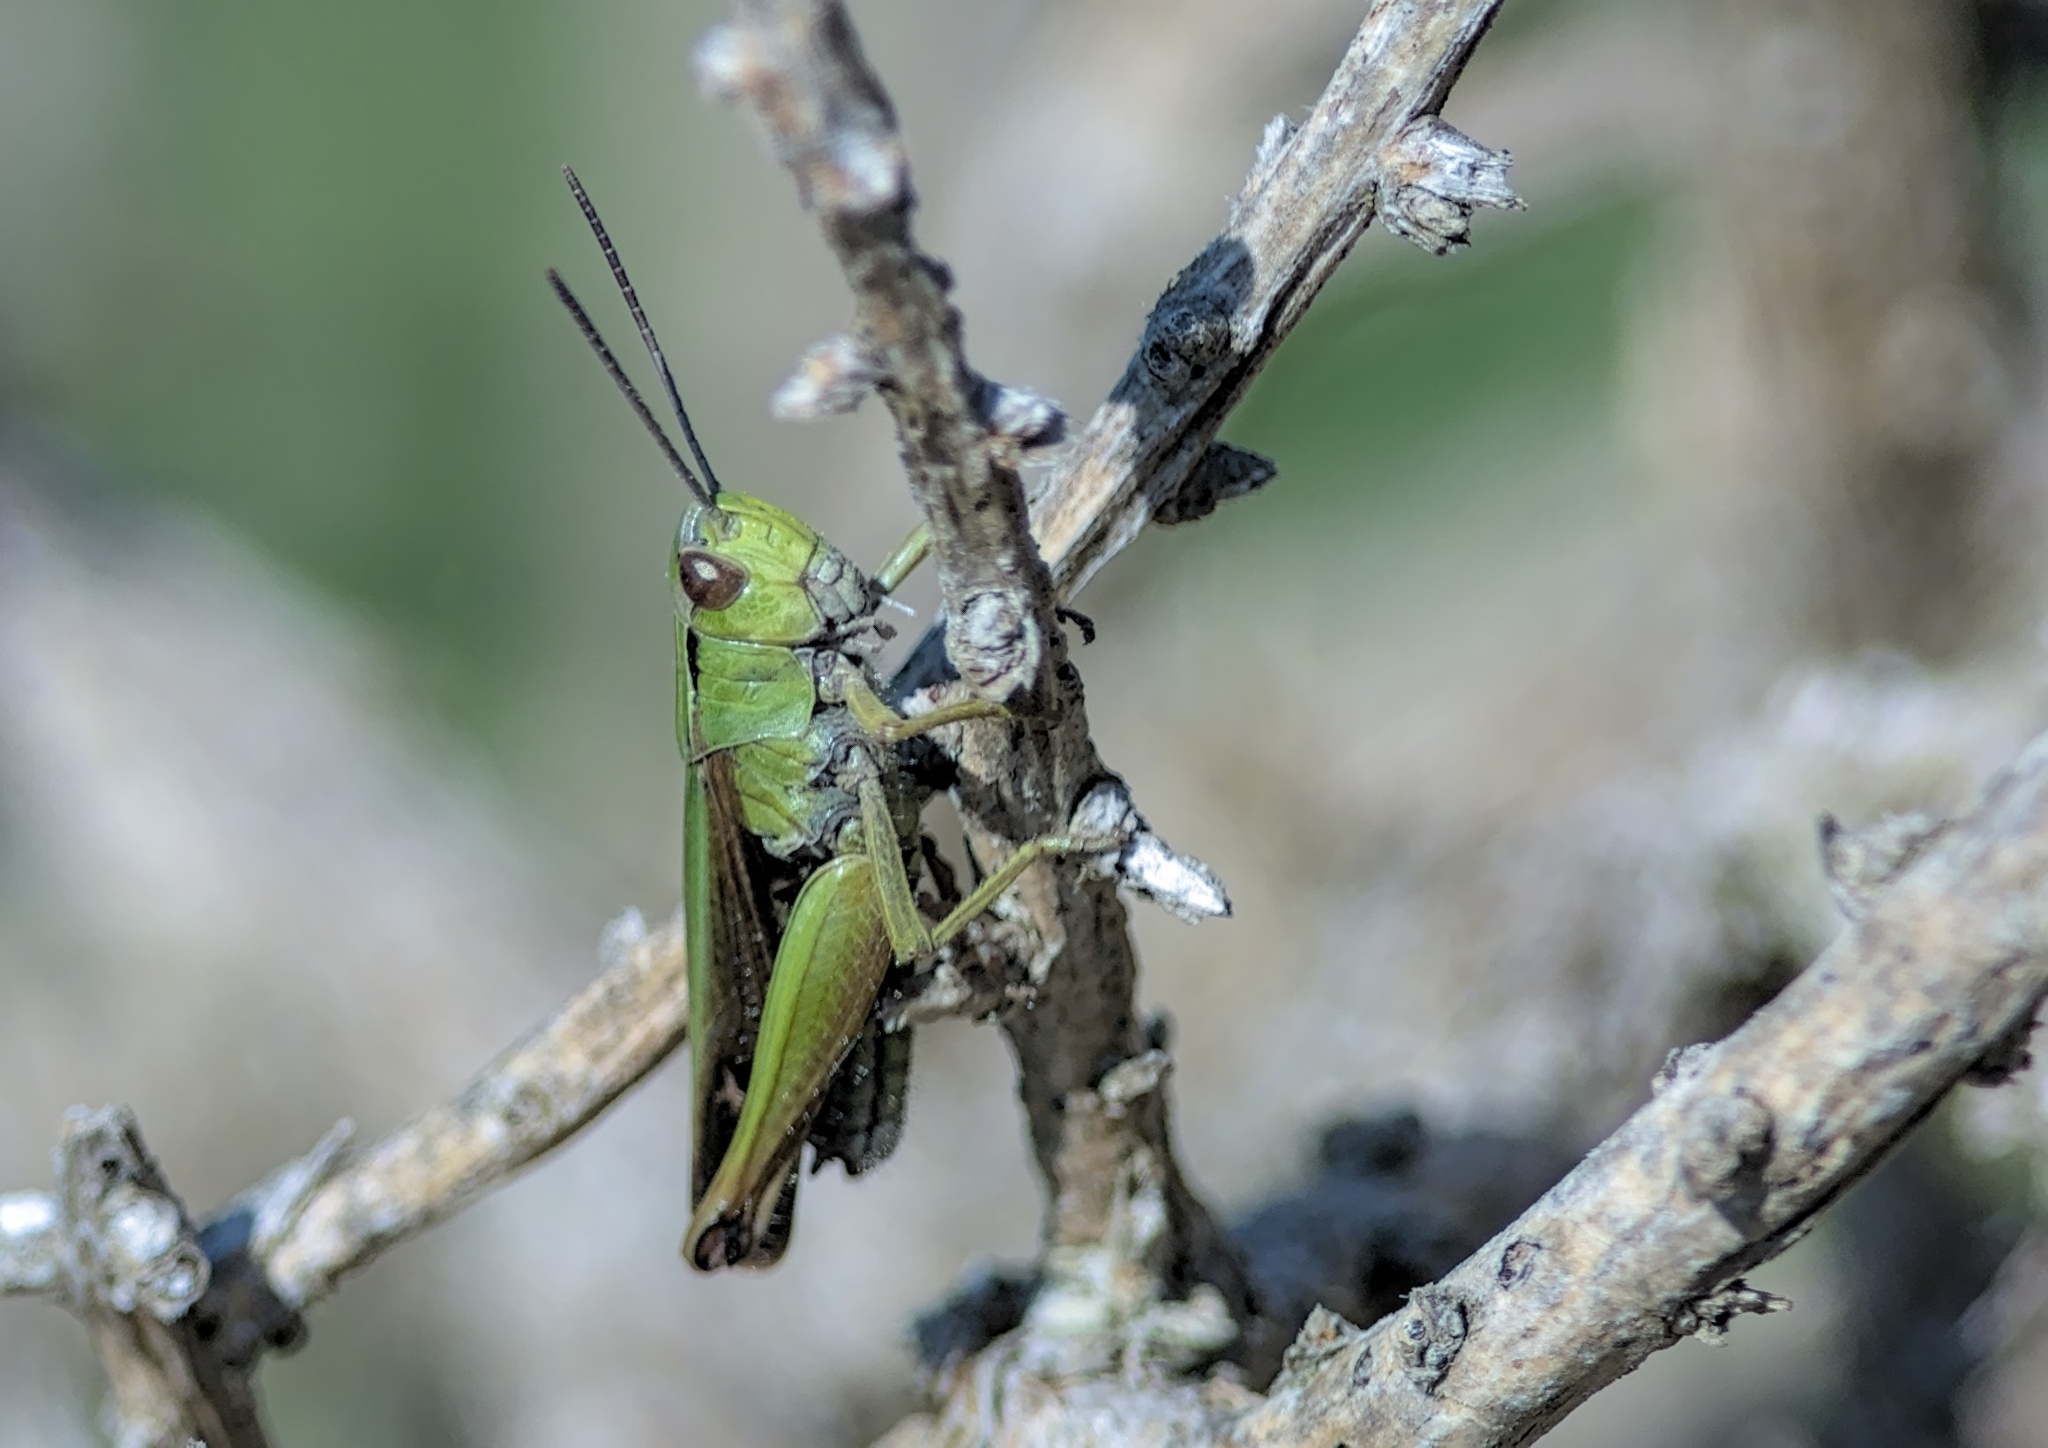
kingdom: Animalia
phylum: Arthropoda
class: Insecta
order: Orthoptera
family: Acrididae
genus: Omocestus
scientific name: Omocestus viridulus
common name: Common green grasshopper
